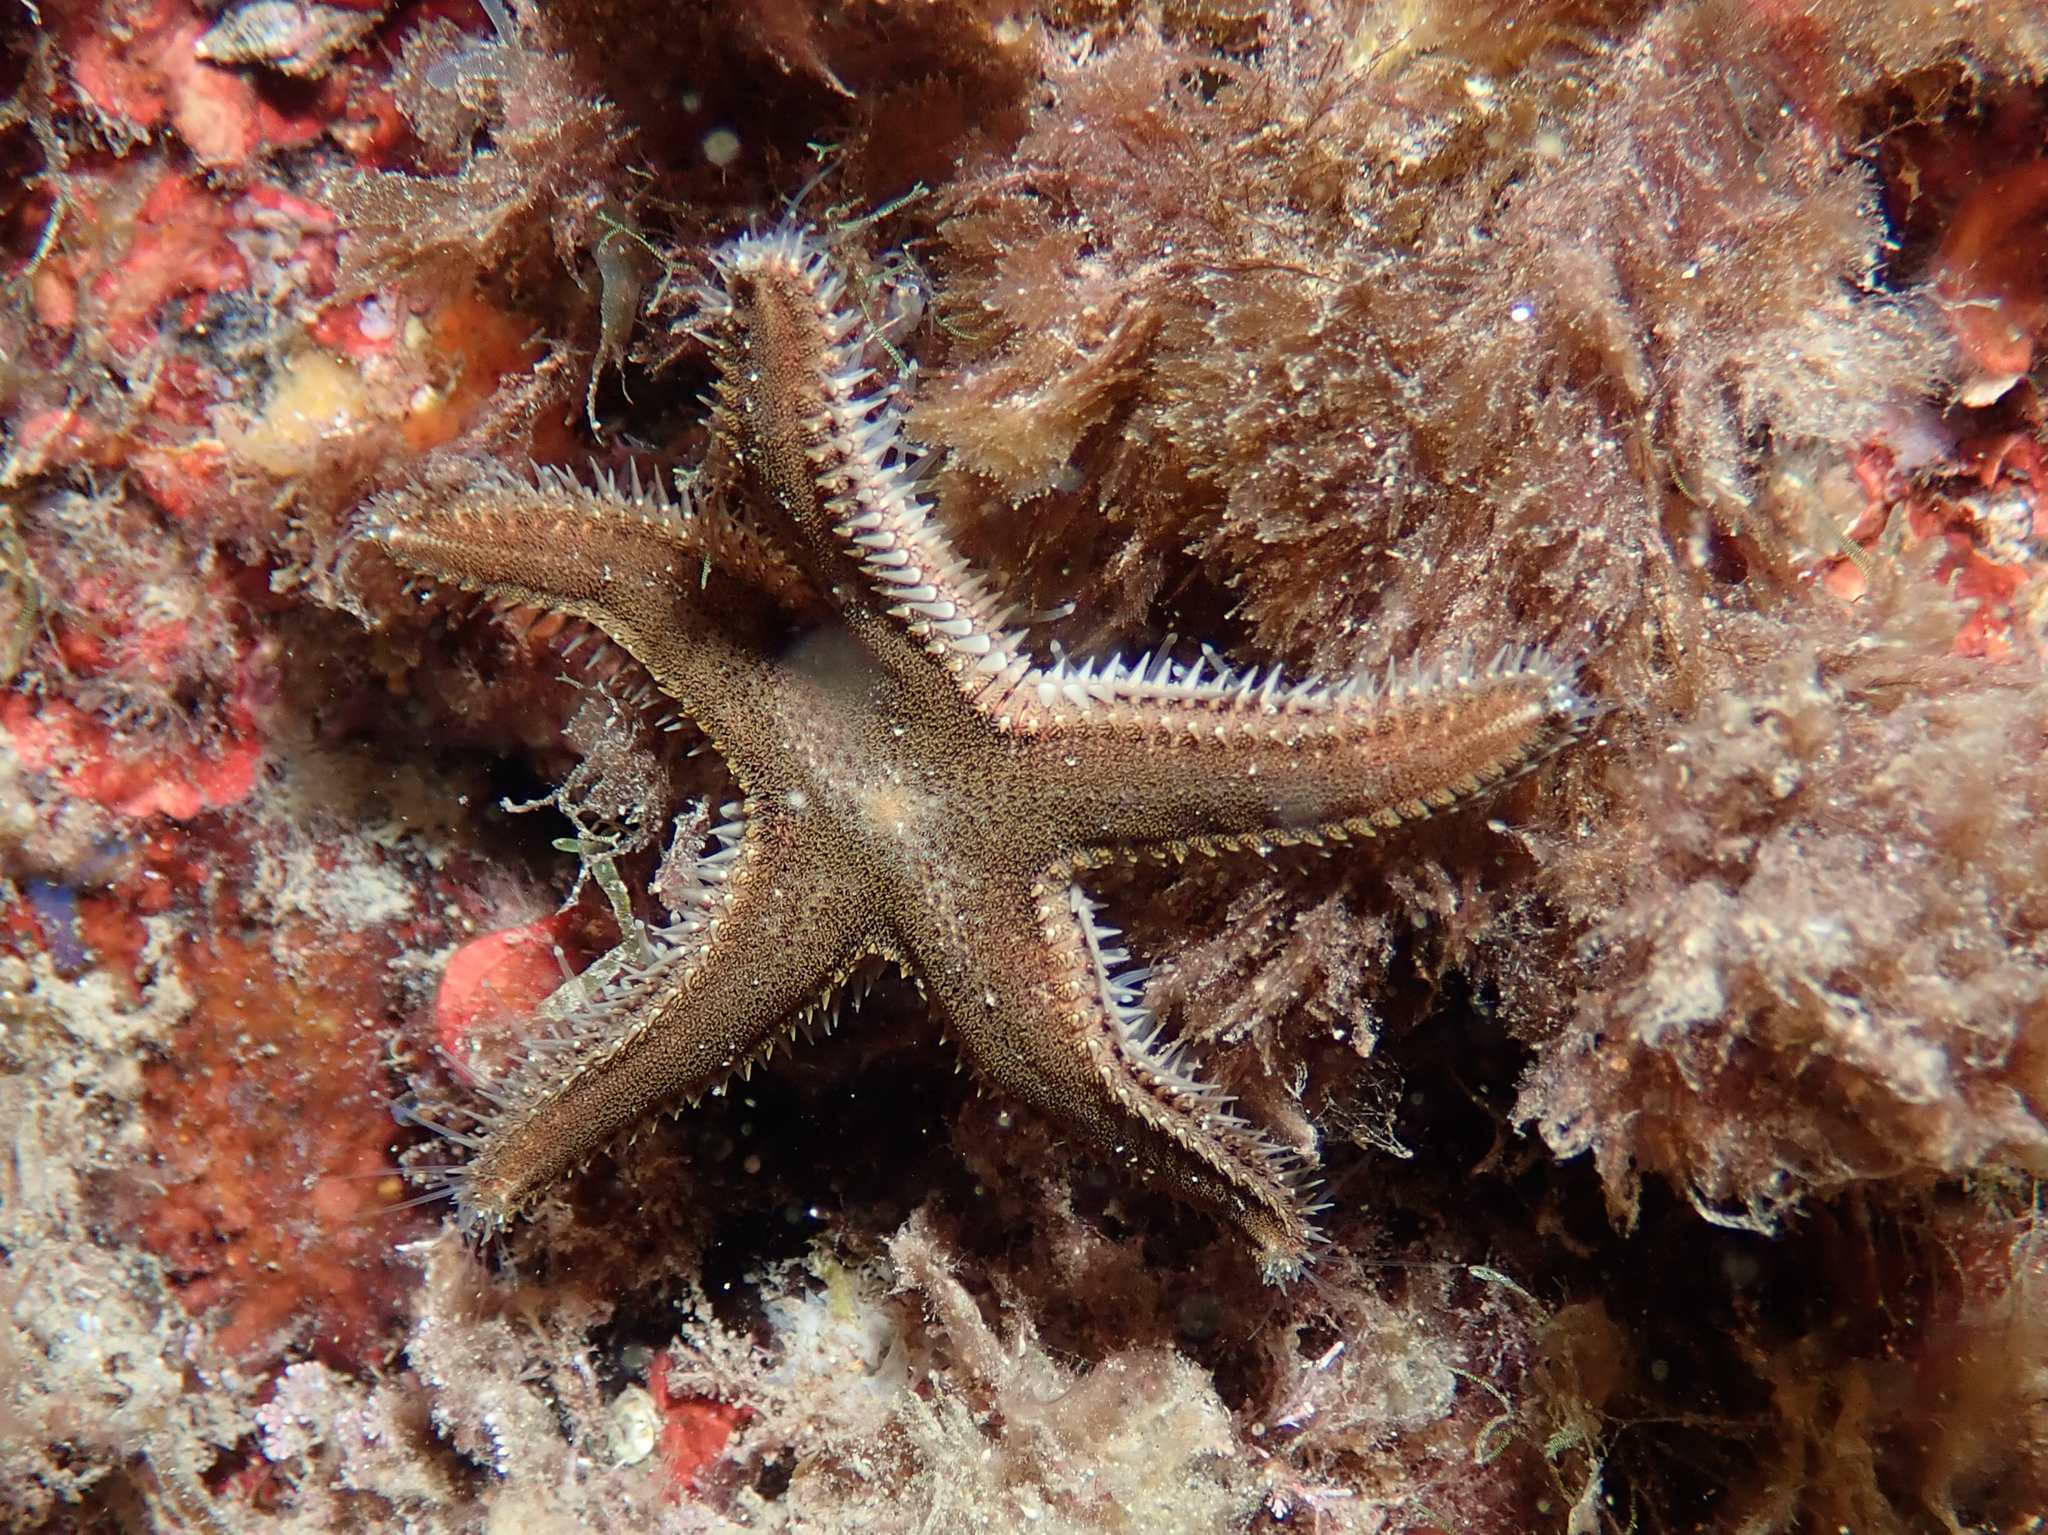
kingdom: Animalia
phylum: Echinodermata
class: Asteroidea
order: Paxillosida
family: Astropectinidae
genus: Astropecten
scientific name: Astropecten spinulosus
